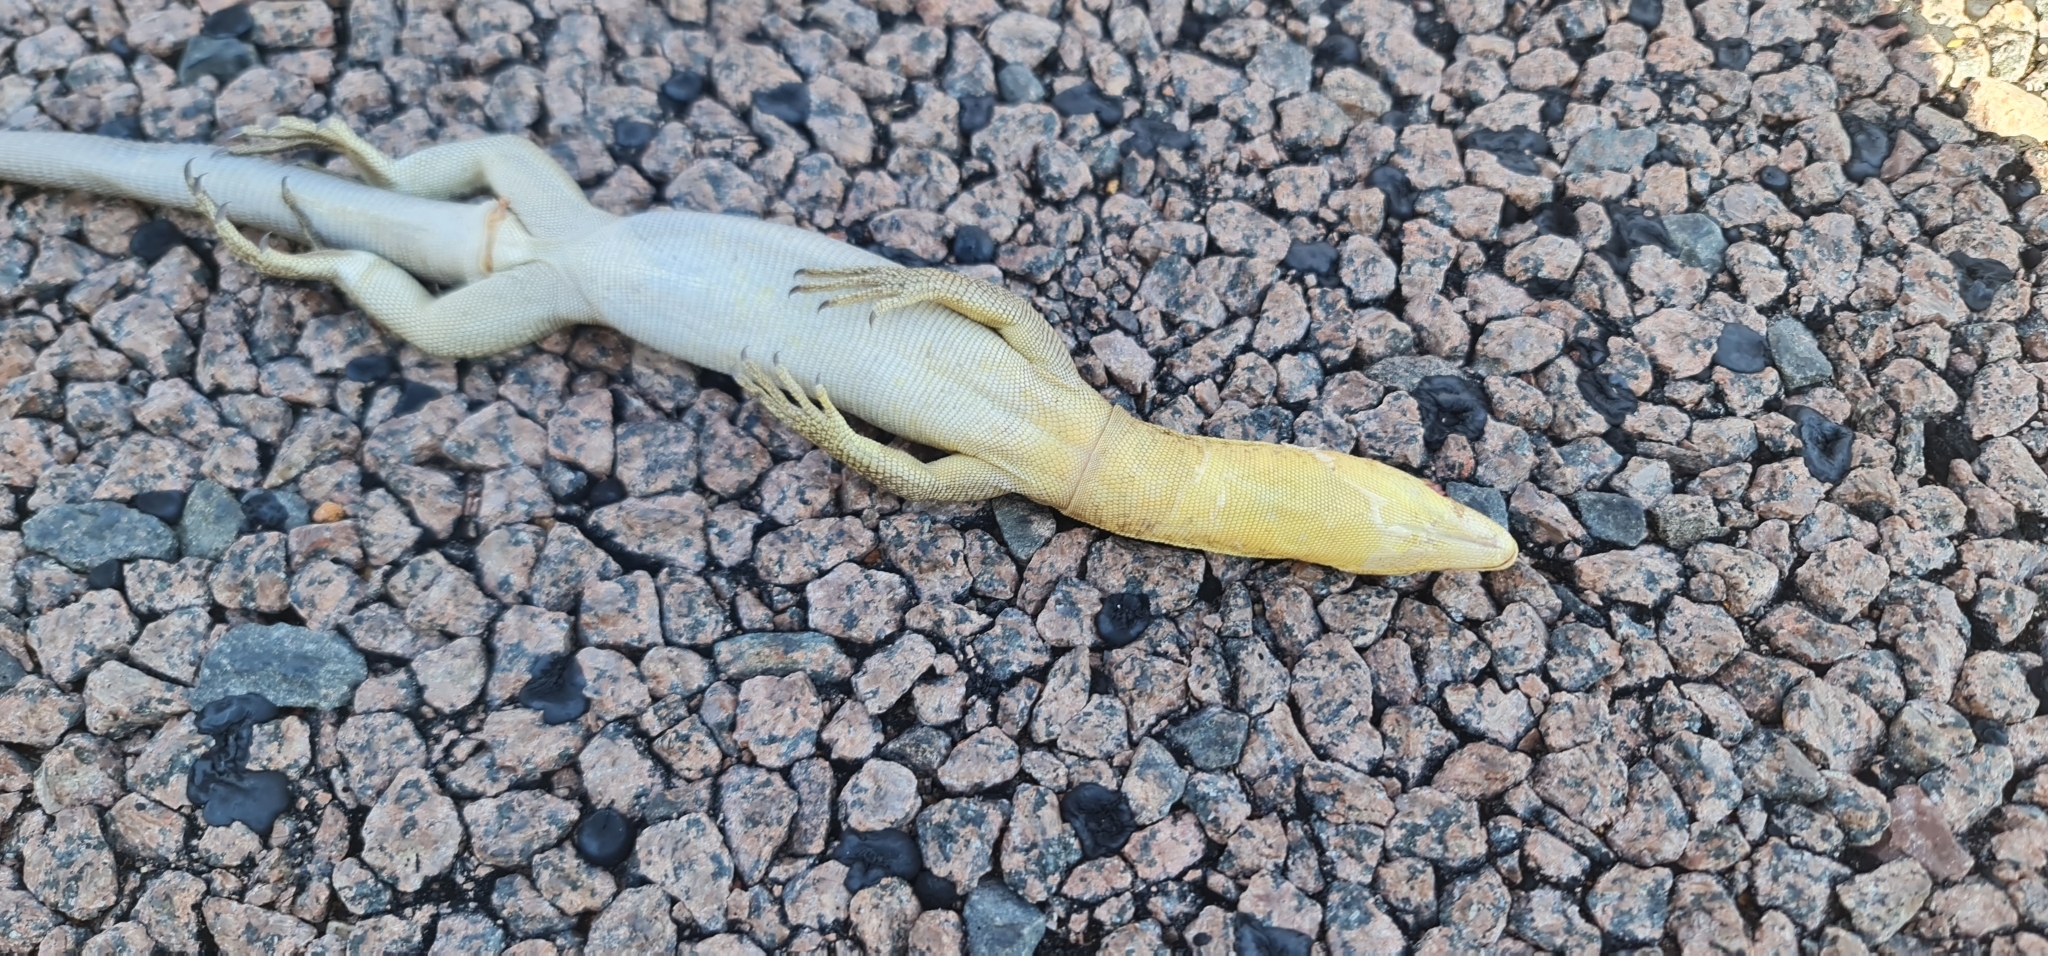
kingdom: Animalia
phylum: Chordata
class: Squamata
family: Varanidae
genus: Varanus
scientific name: Varanus tristis
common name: Arid monitor
